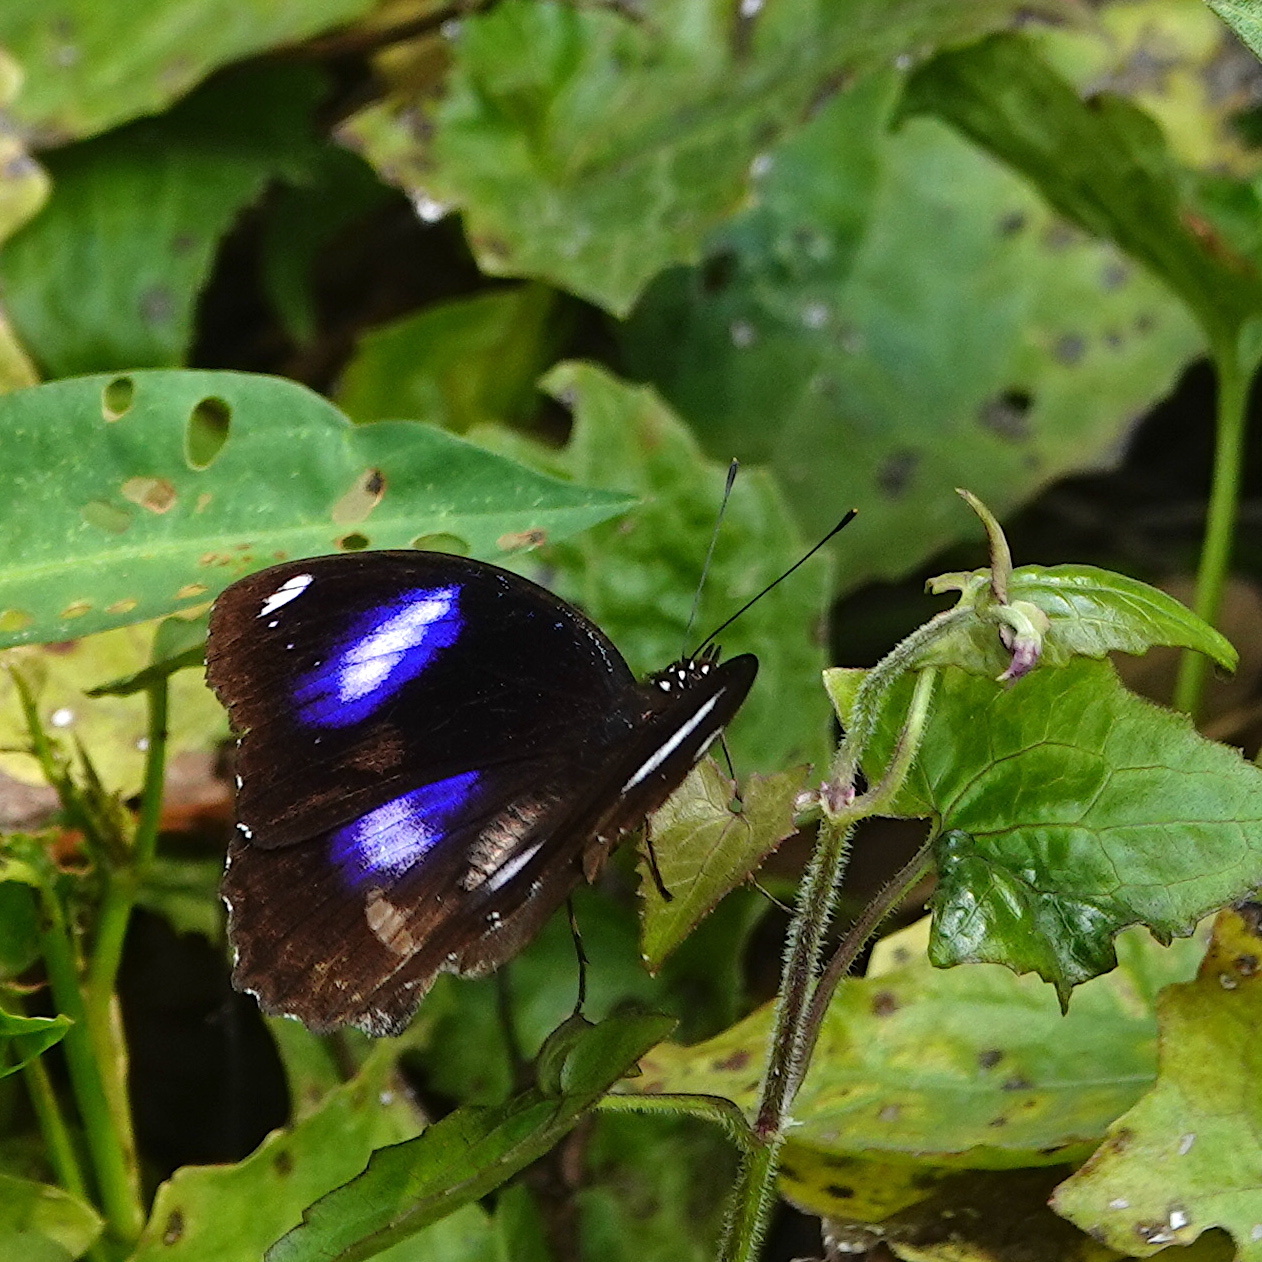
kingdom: Animalia
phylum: Arthropoda
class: Insecta
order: Lepidoptera
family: Nymphalidae
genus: Hypolimnas
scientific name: Hypolimnas bolina
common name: Great eggfly
